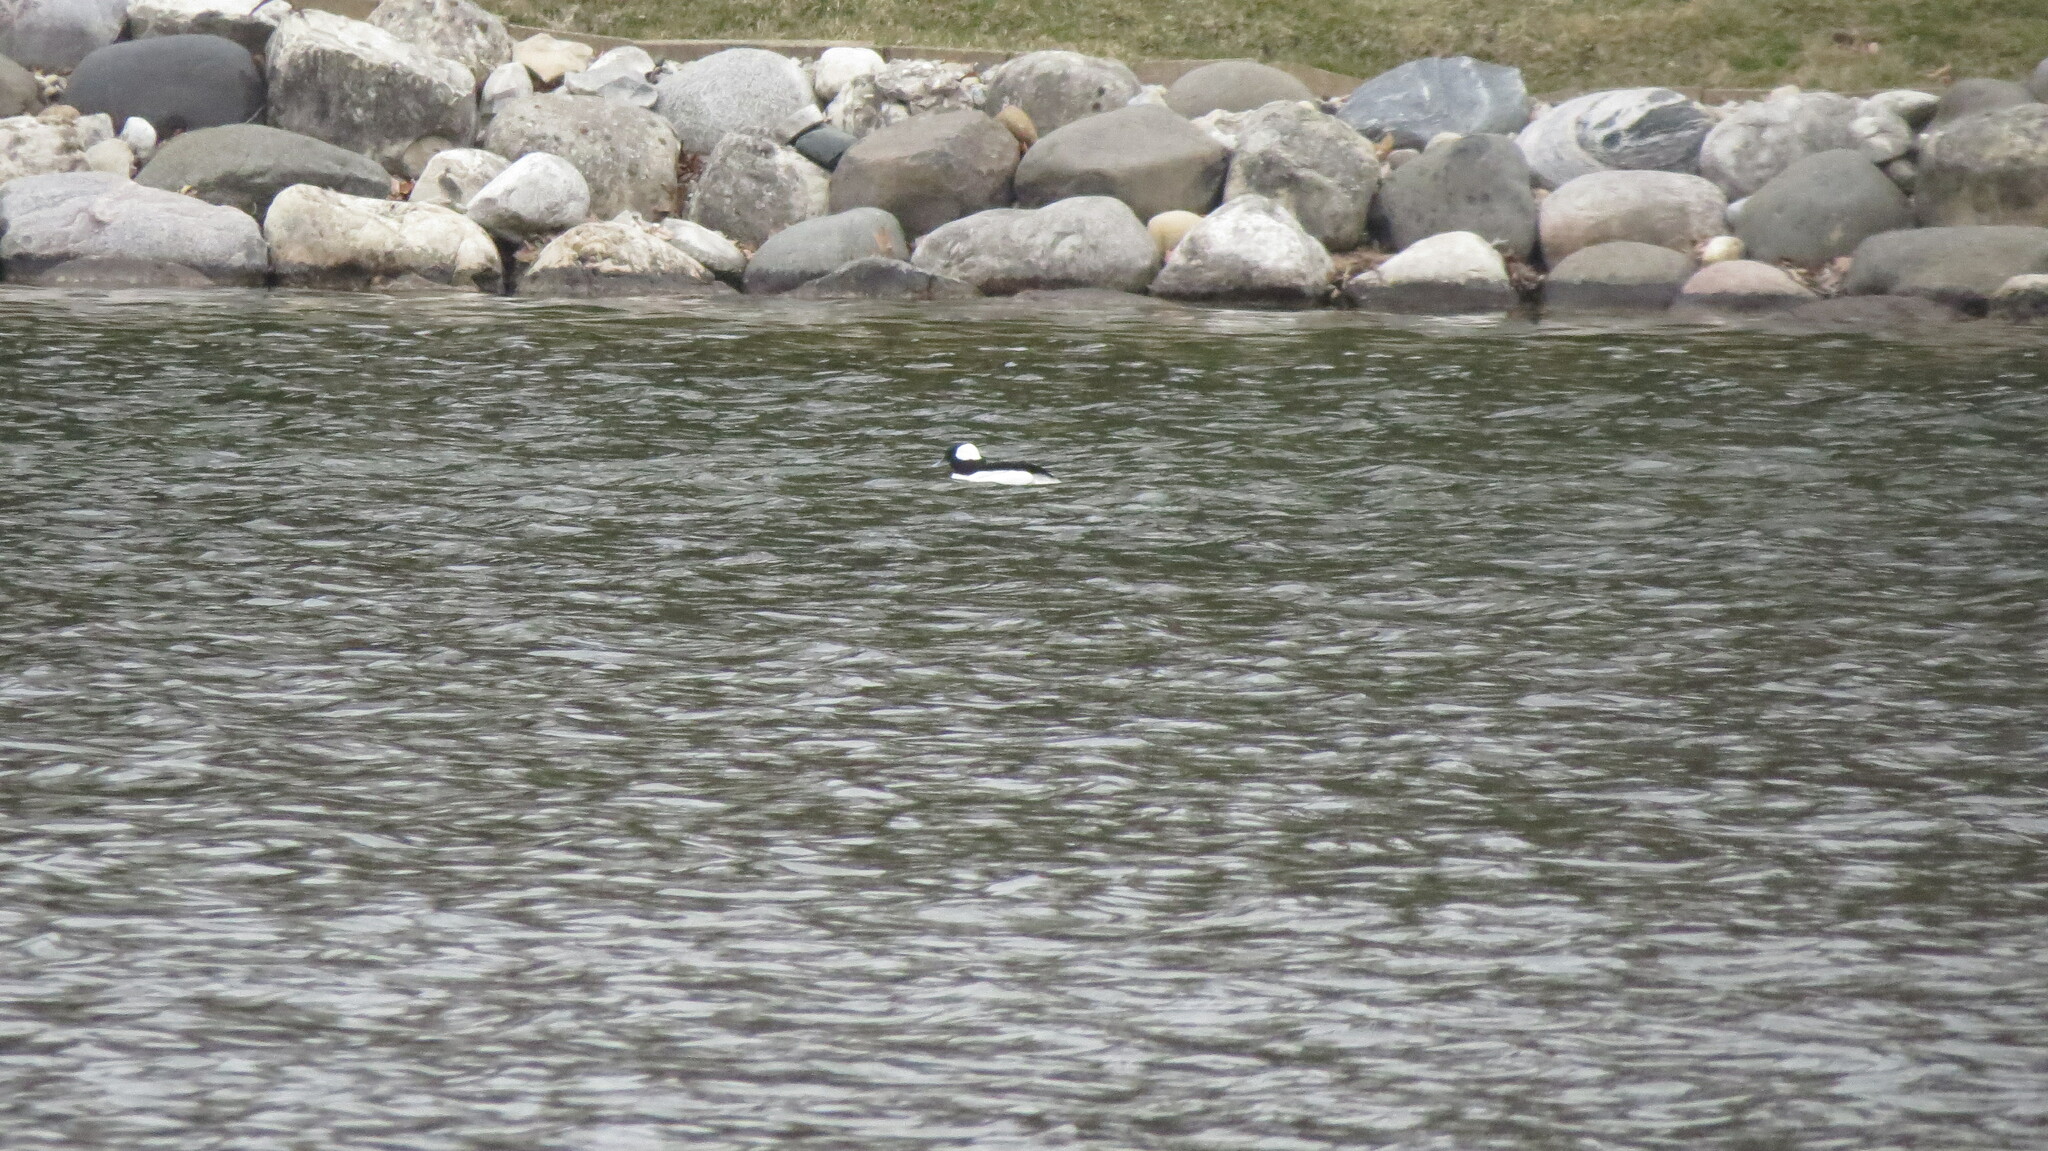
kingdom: Animalia
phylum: Chordata
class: Aves
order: Anseriformes
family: Anatidae
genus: Bucephala
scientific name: Bucephala albeola
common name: Bufflehead
